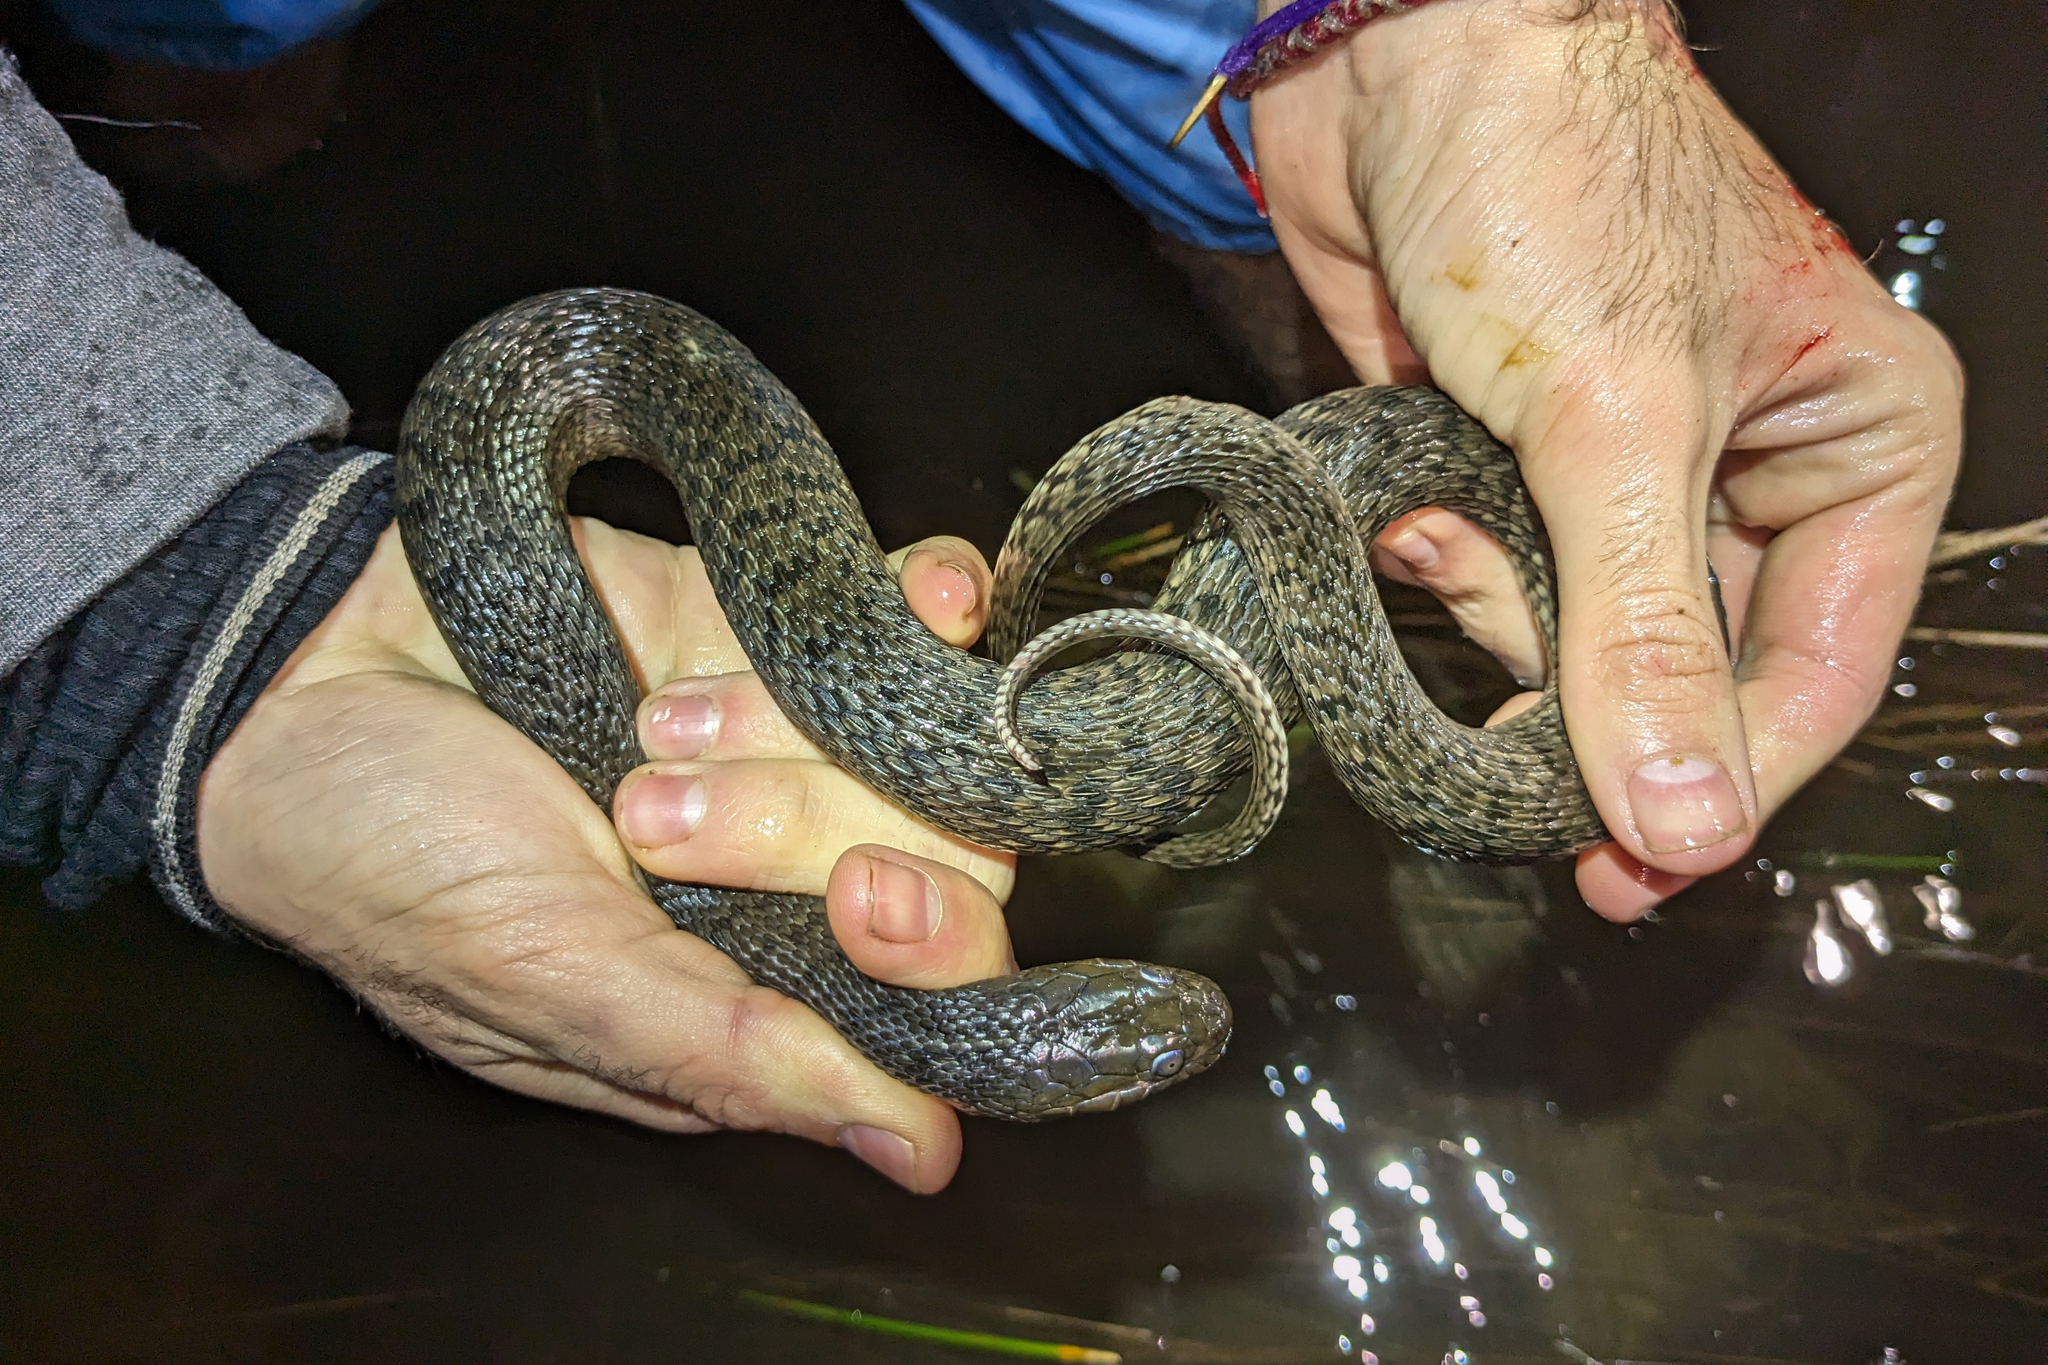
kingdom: Animalia
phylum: Chordata
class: Squamata
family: Colubridae
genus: Nerodia
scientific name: Nerodia floridana
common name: Florida green watersnake
